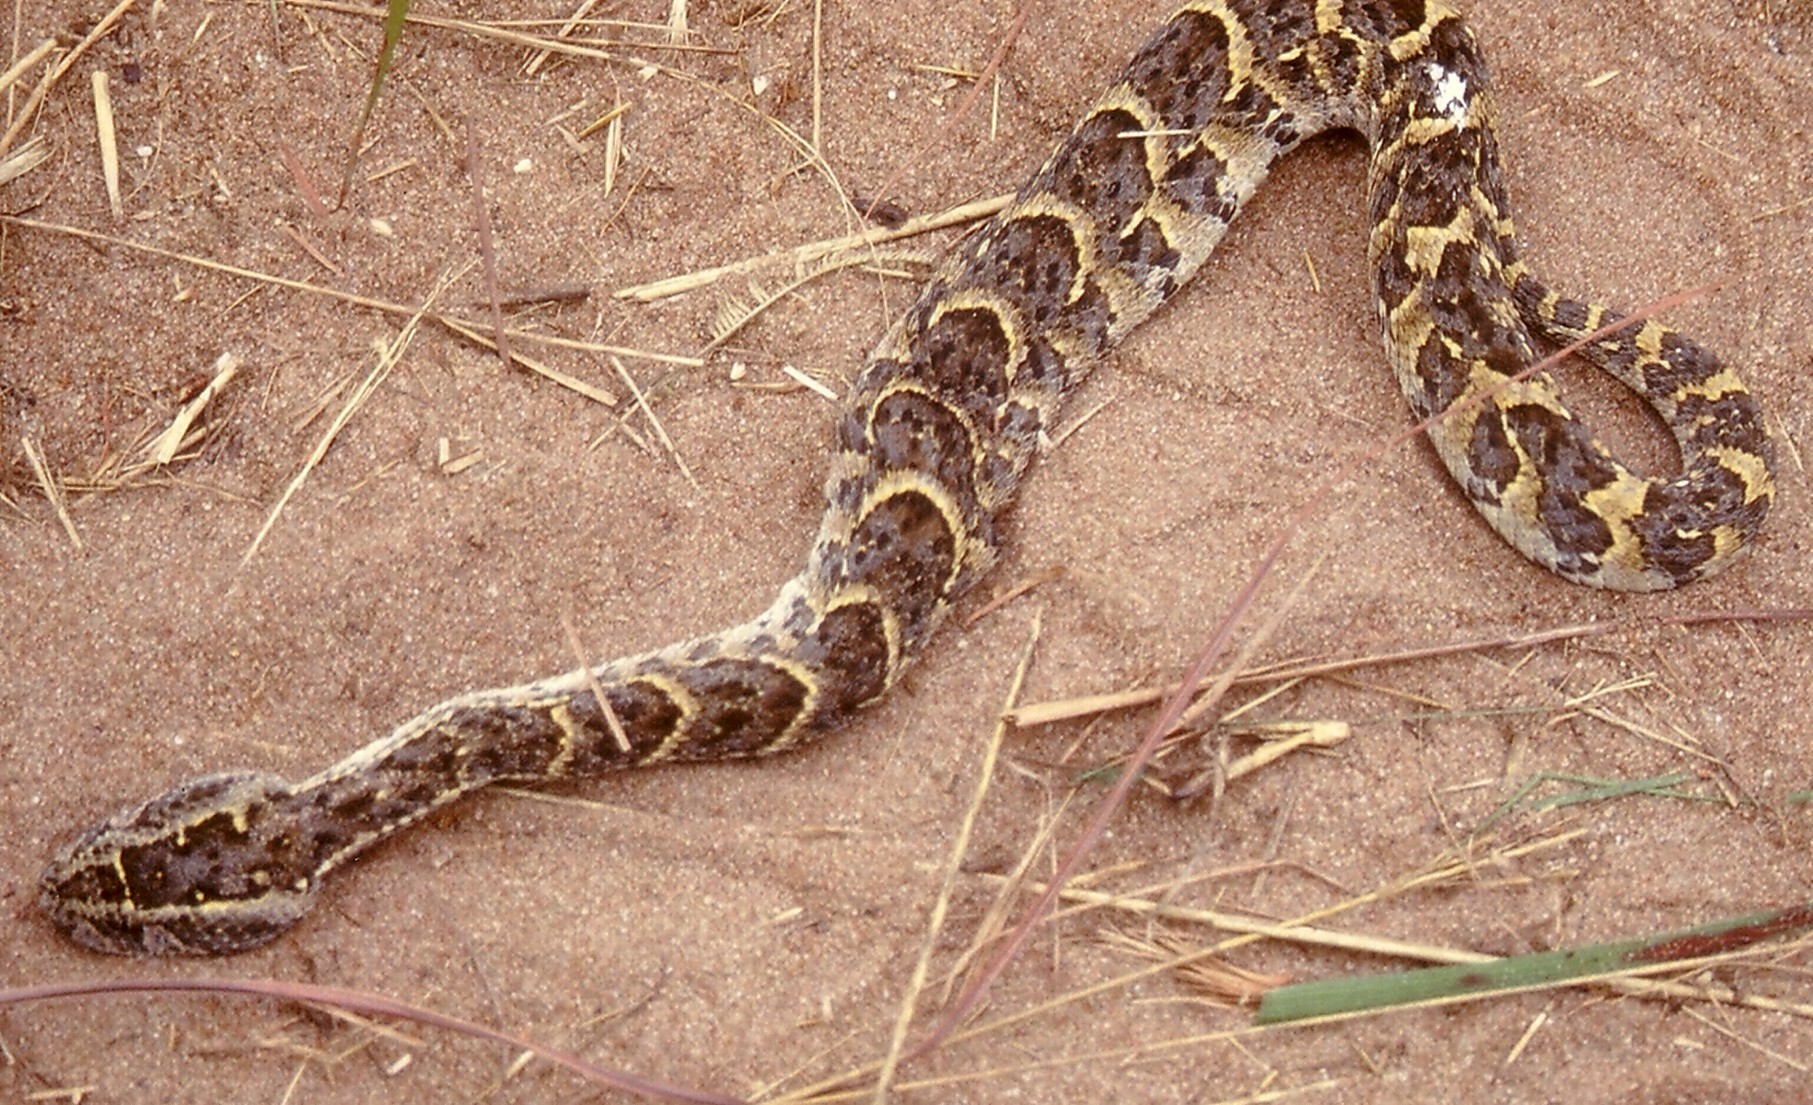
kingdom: Animalia
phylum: Chordata
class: Squamata
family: Viperidae
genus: Bitis
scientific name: Bitis arietans
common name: Puff adder
